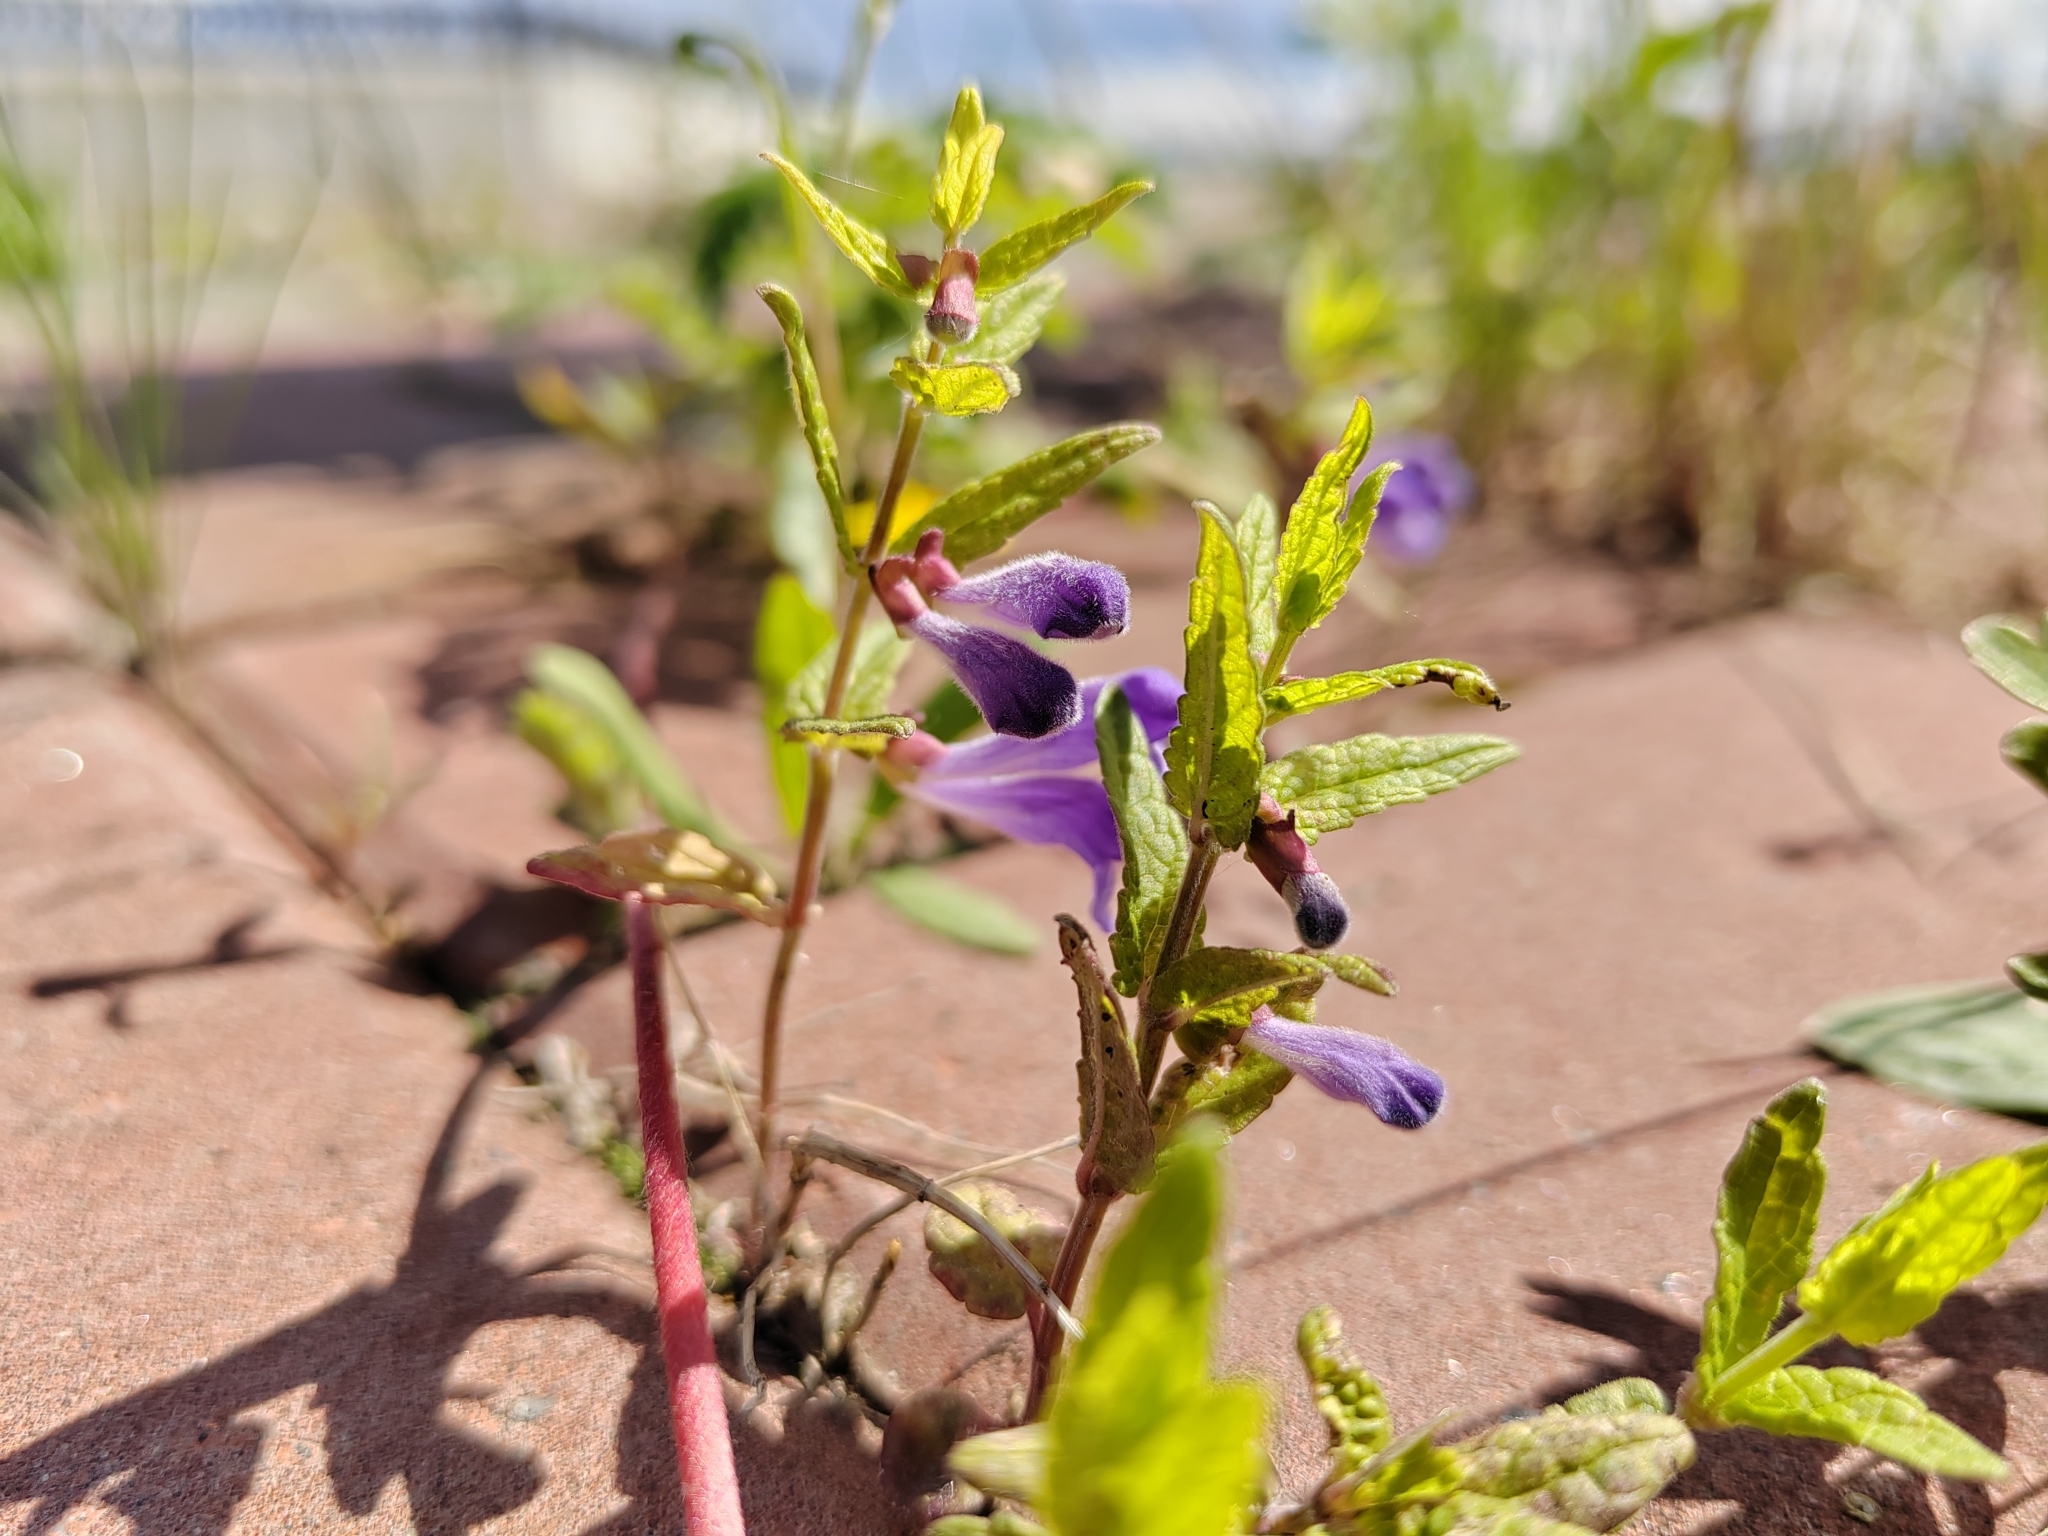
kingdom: Plantae
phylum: Tracheophyta
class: Magnoliopsida
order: Lamiales
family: Lamiaceae
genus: Scutellaria
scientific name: Scutellaria galericulata
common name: Skullcap
